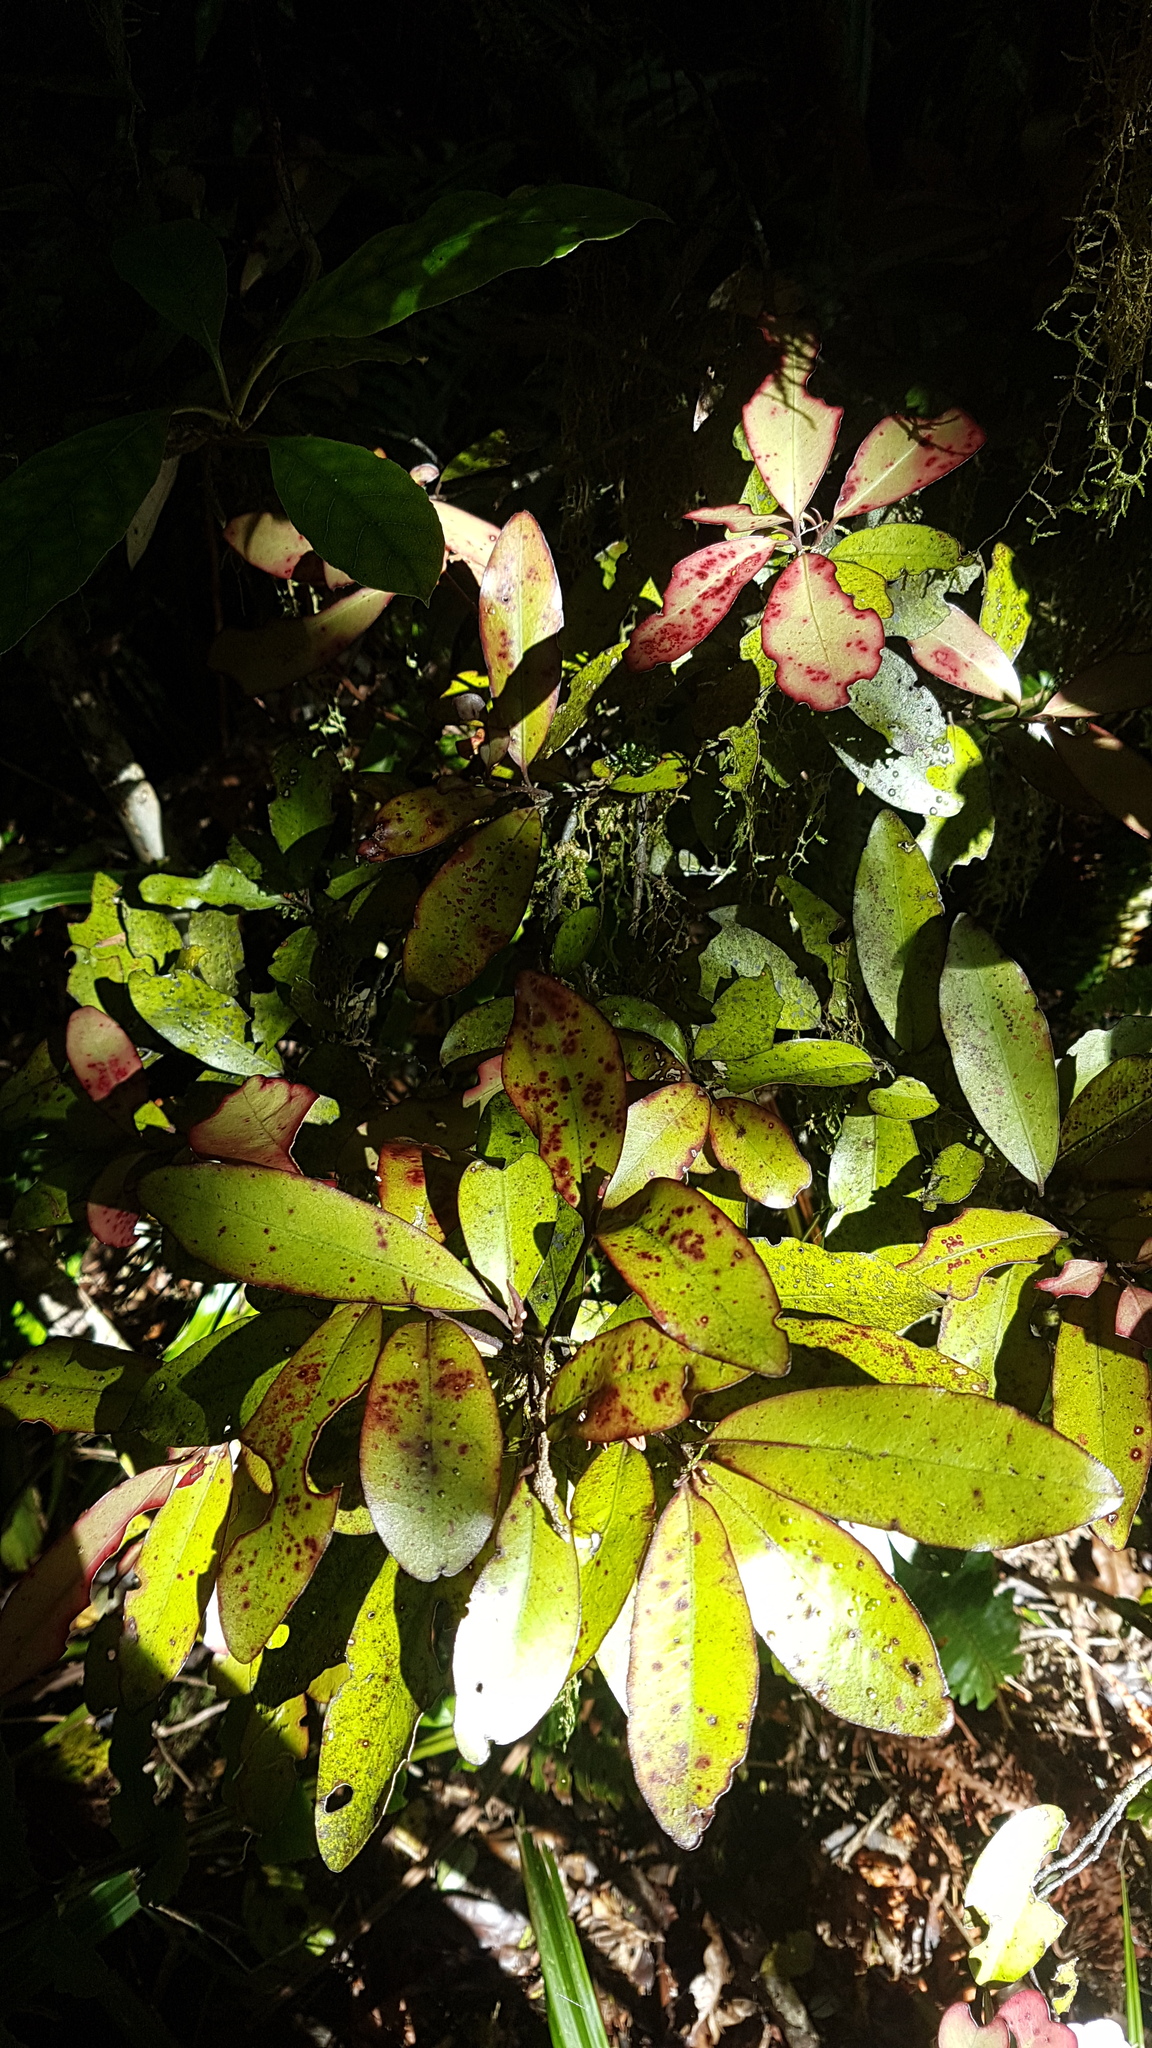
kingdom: Plantae
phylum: Tracheophyta
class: Magnoliopsida
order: Canellales
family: Winteraceae
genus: Pseudowintera
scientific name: Pseudowintera colorata
